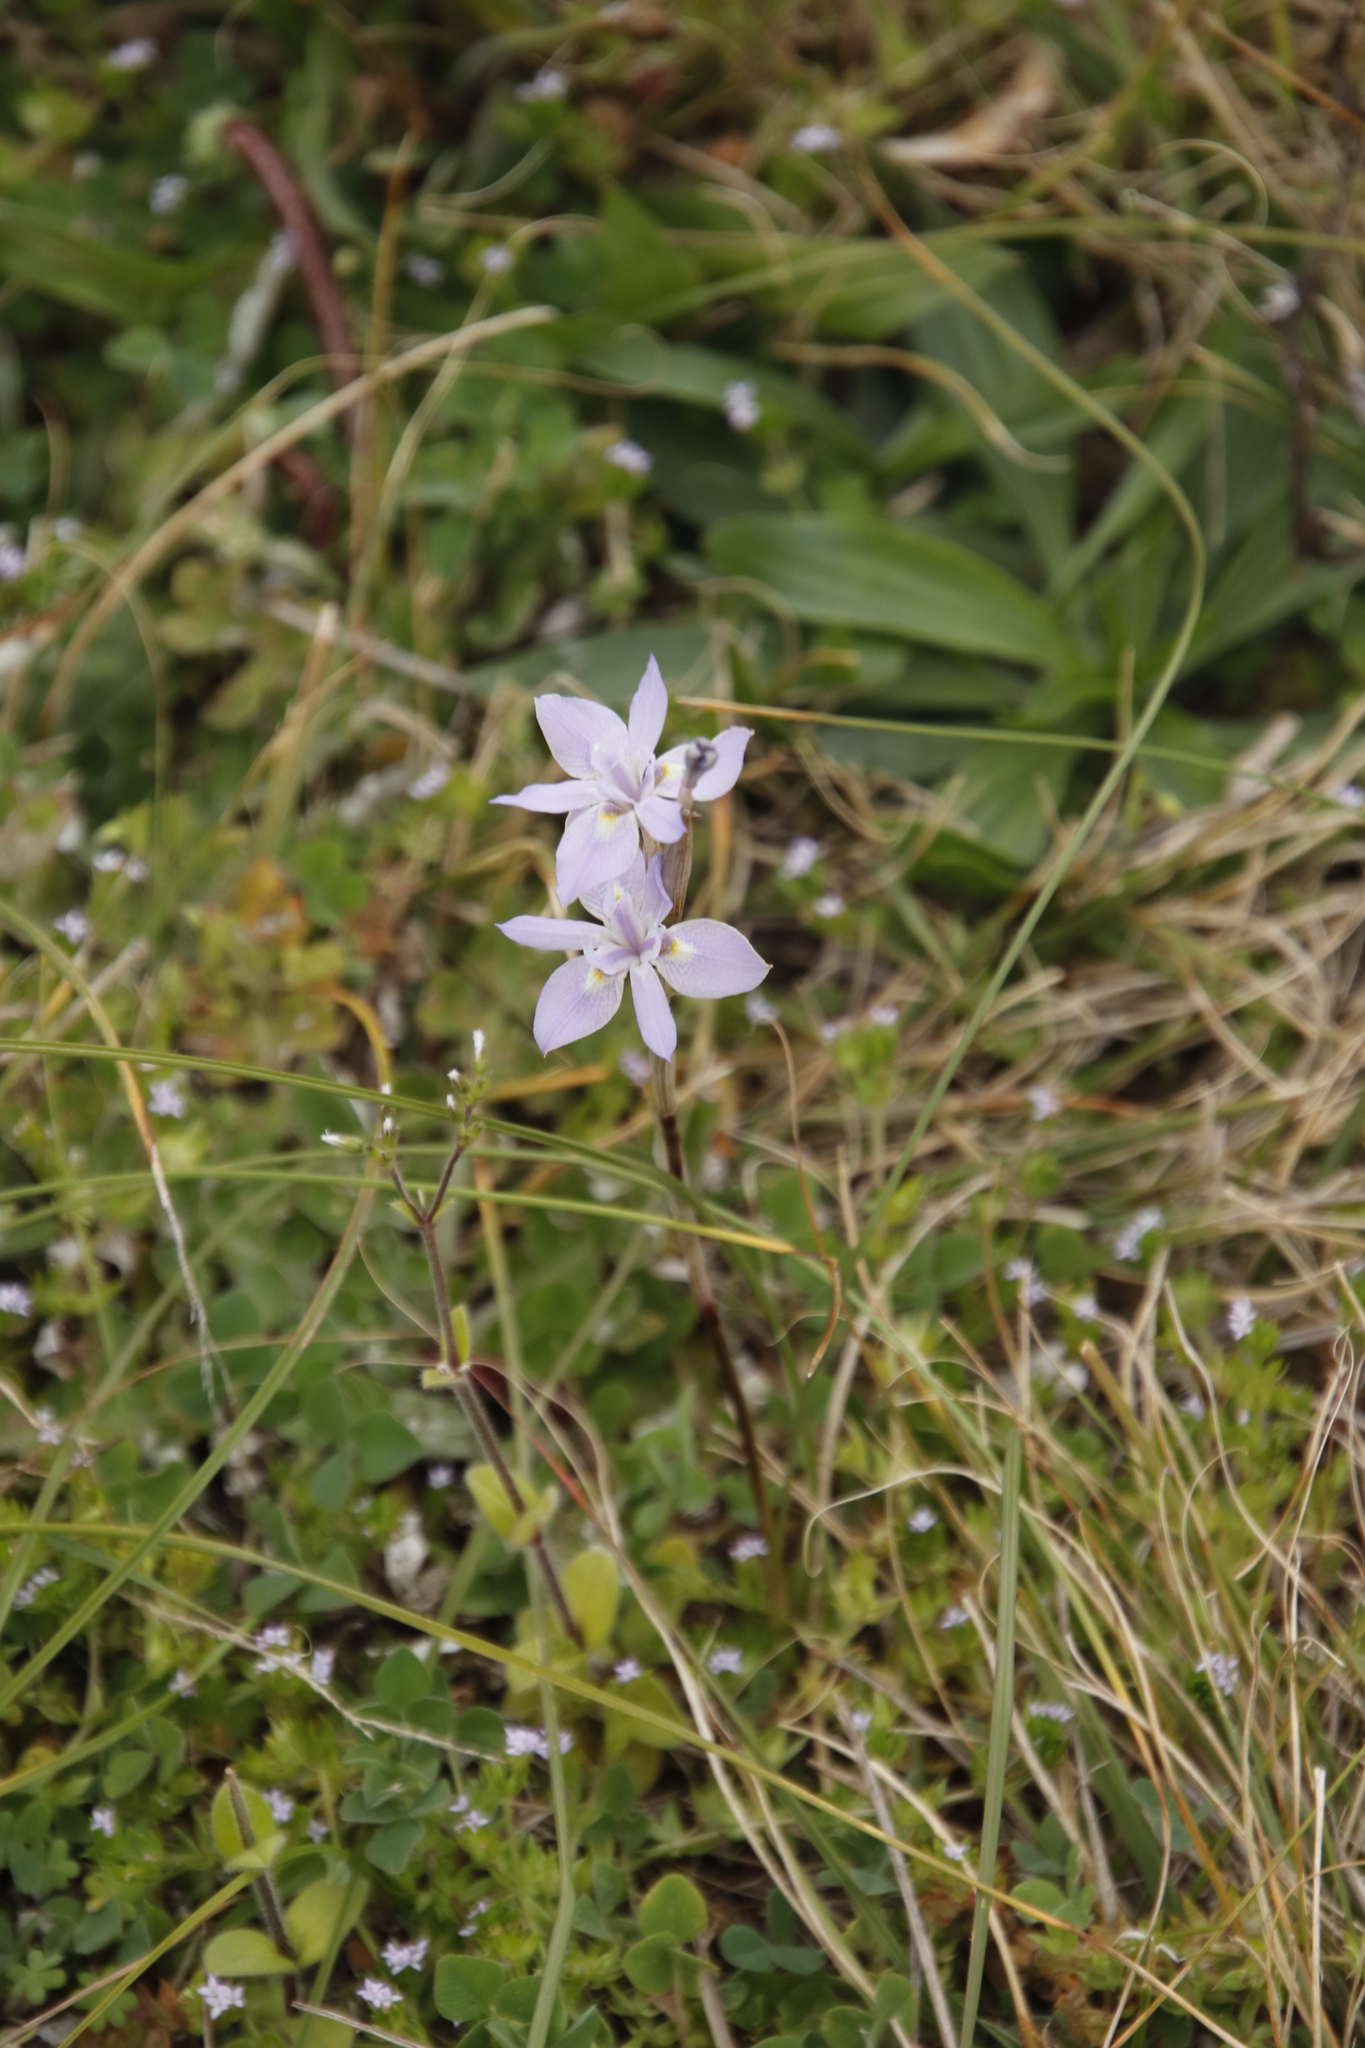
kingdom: Plantae
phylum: Tracheophyta
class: Liliopsida
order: Asparagales
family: Iridaceae
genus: Moraea
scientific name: Moraea setifolia
